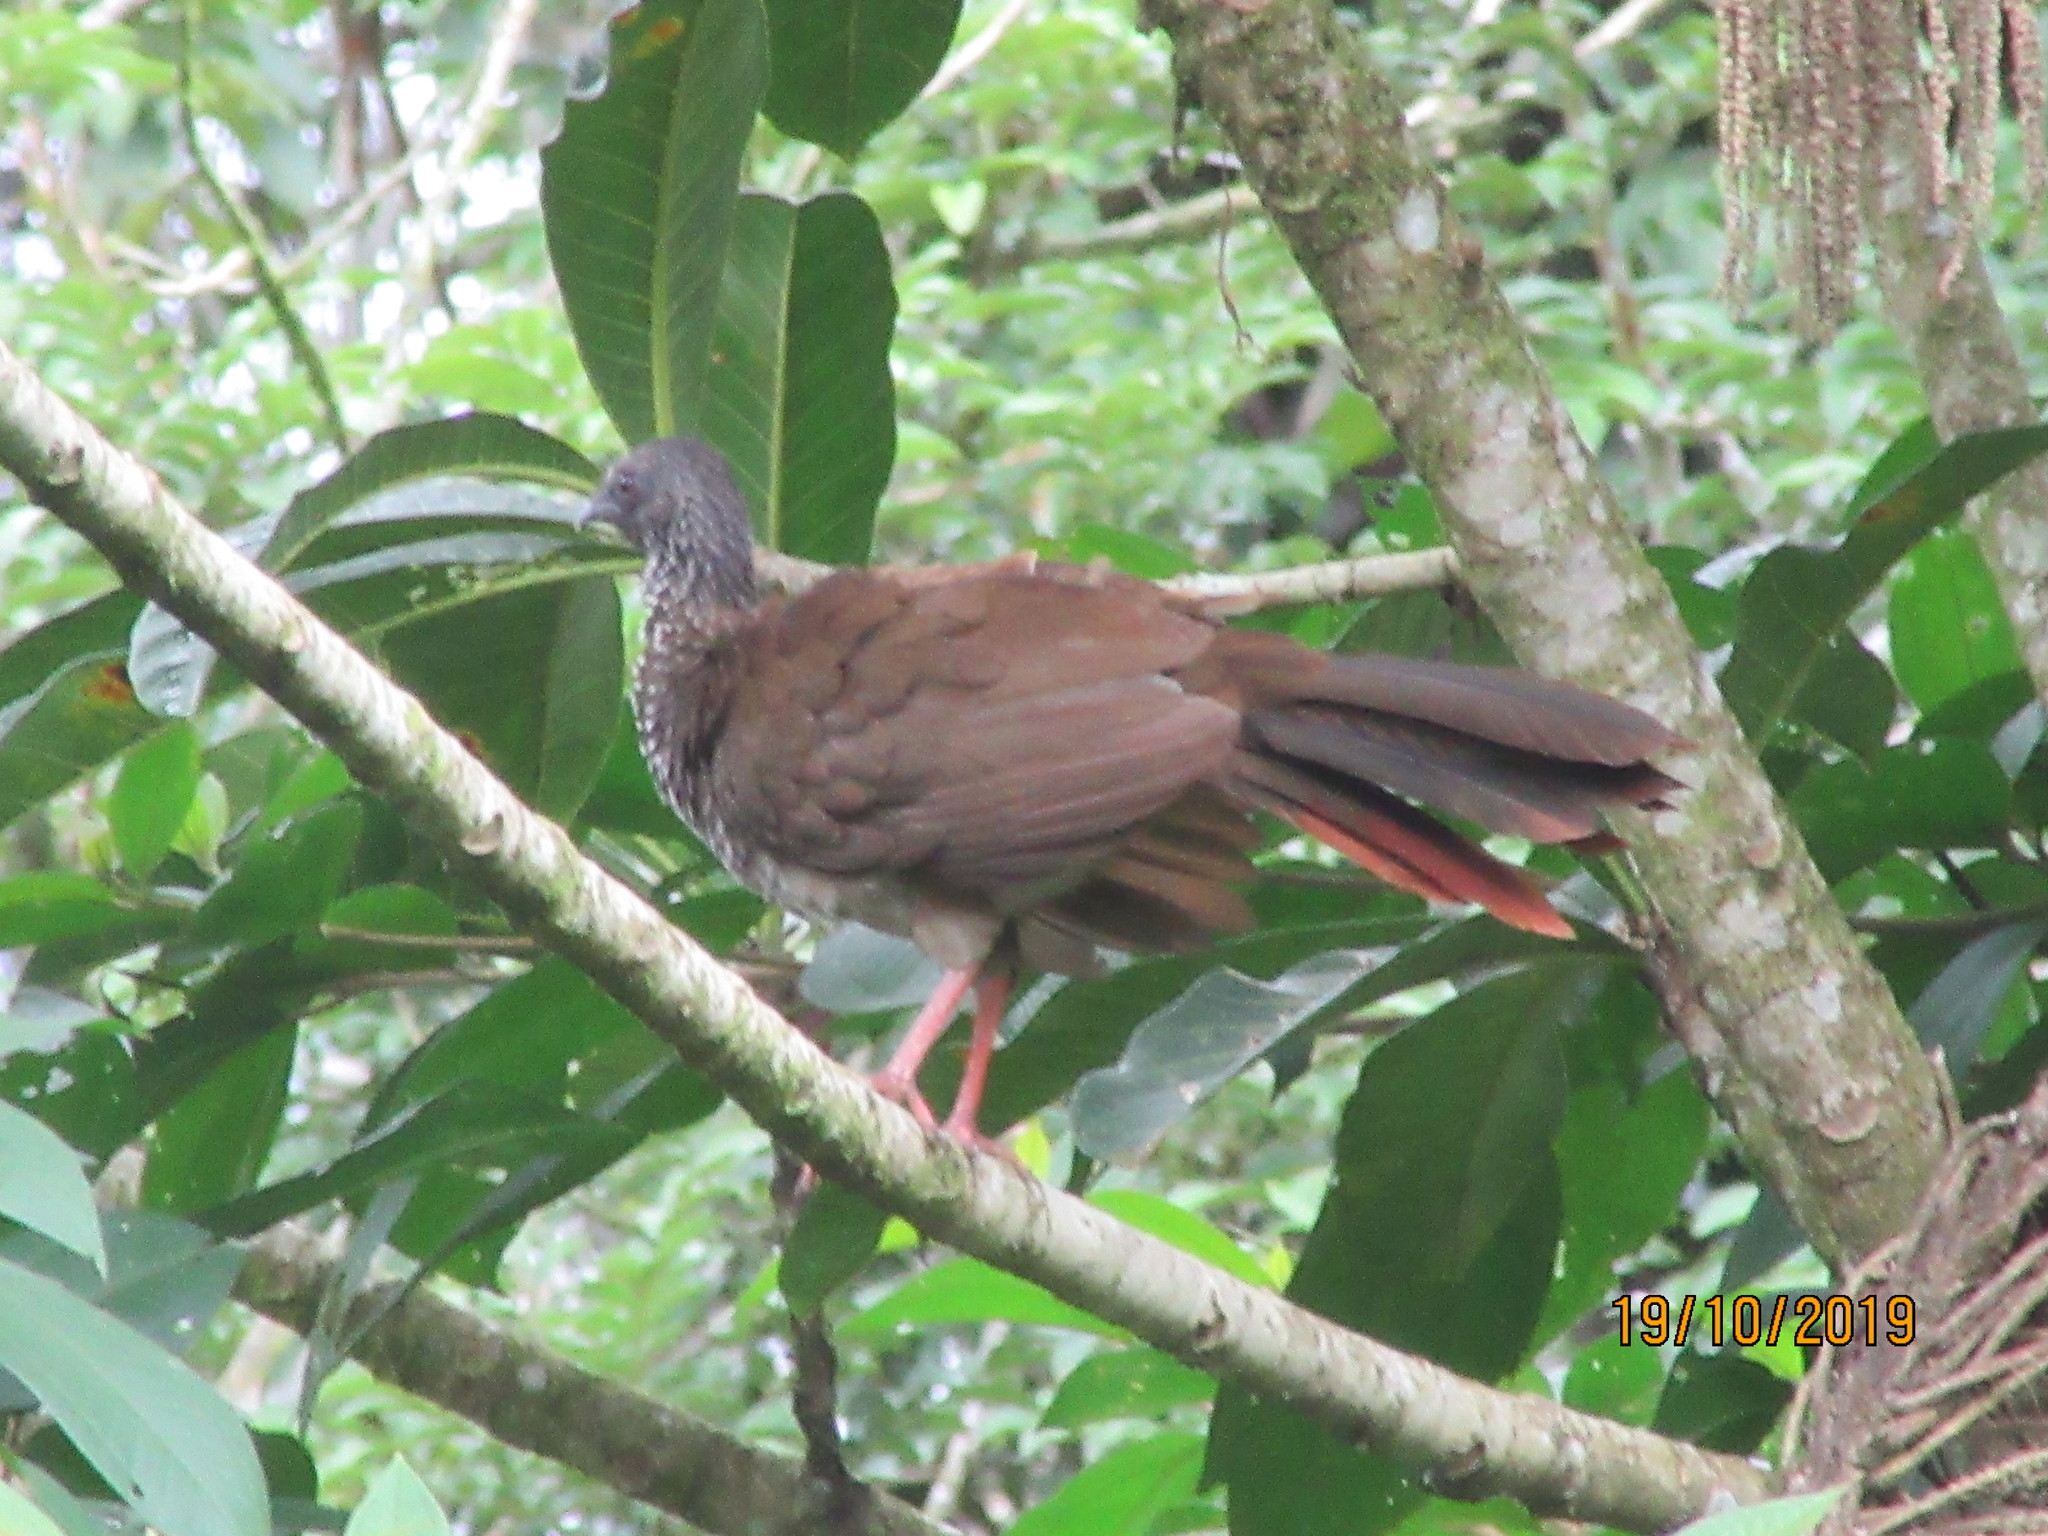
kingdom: Animalia
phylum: Chordata
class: Aves
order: Galliformes
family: Cracidae
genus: Ortalis
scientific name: Ortalis guttata
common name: Speckled chachalaca
